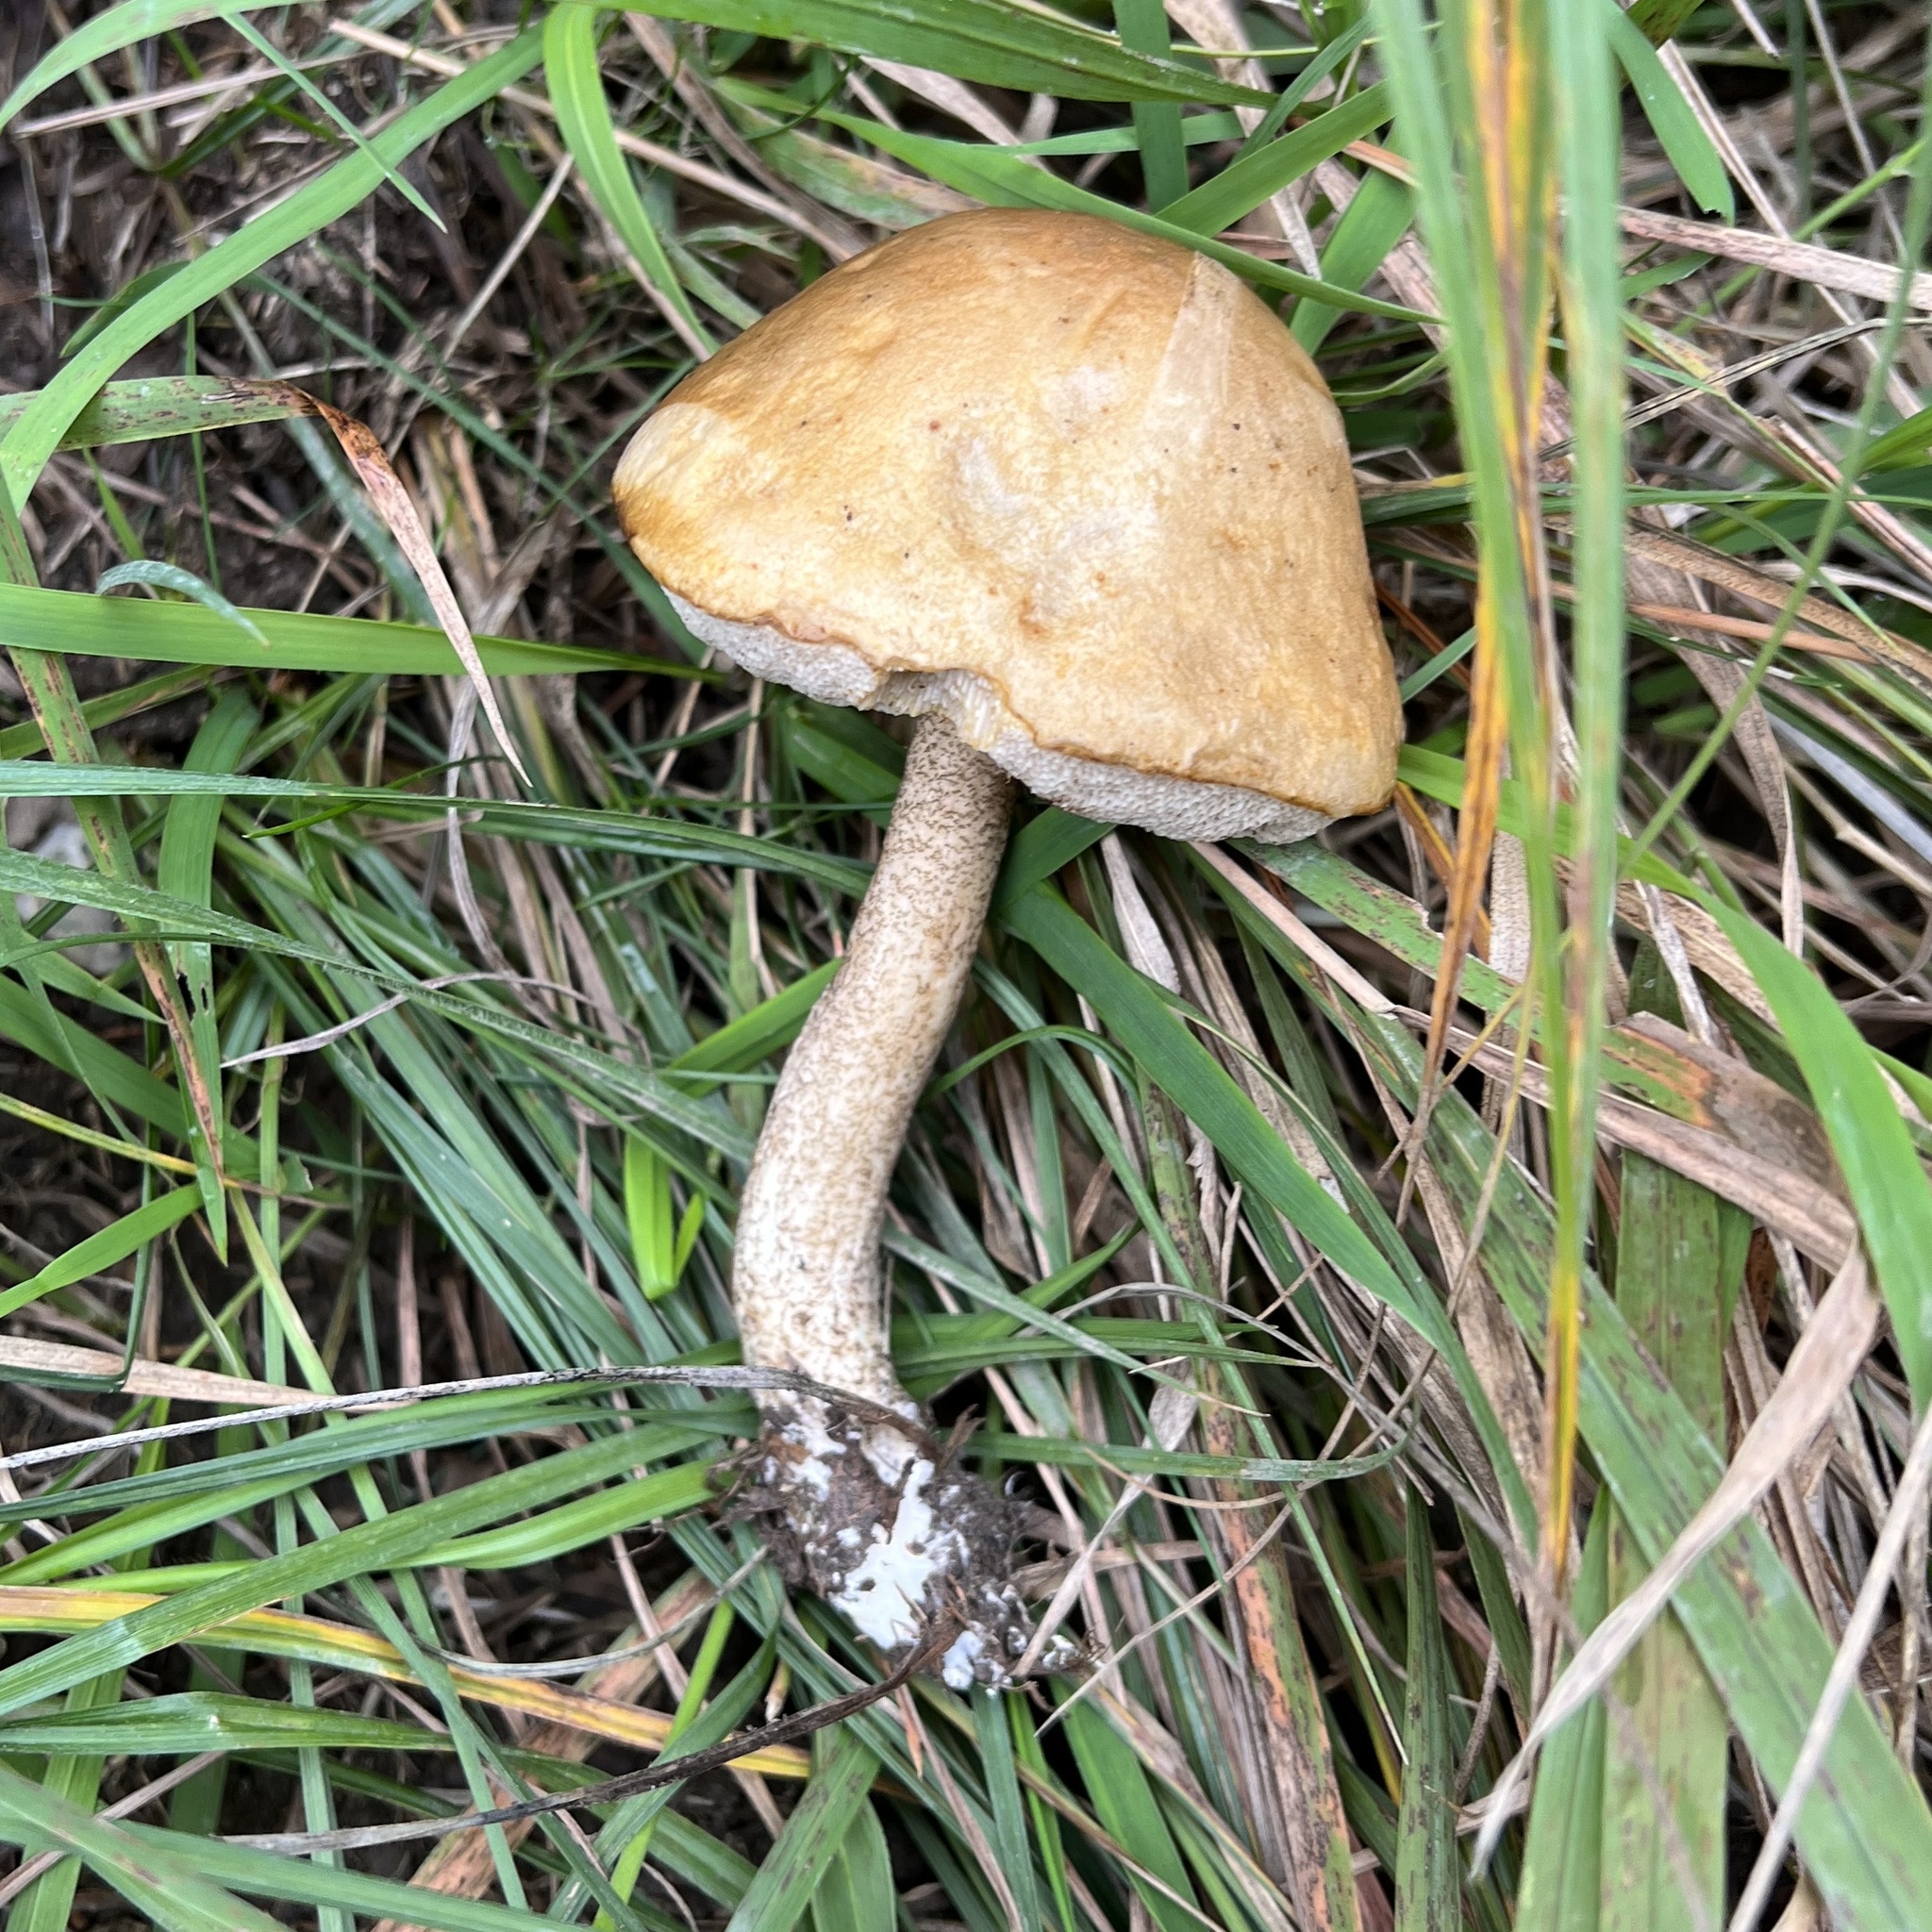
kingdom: Fungi
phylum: Basidiomycota
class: Agaricomycetes
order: Boletales
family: Boletaceae
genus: Leccinum
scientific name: Leccinum scabrum
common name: Blushing bolete
